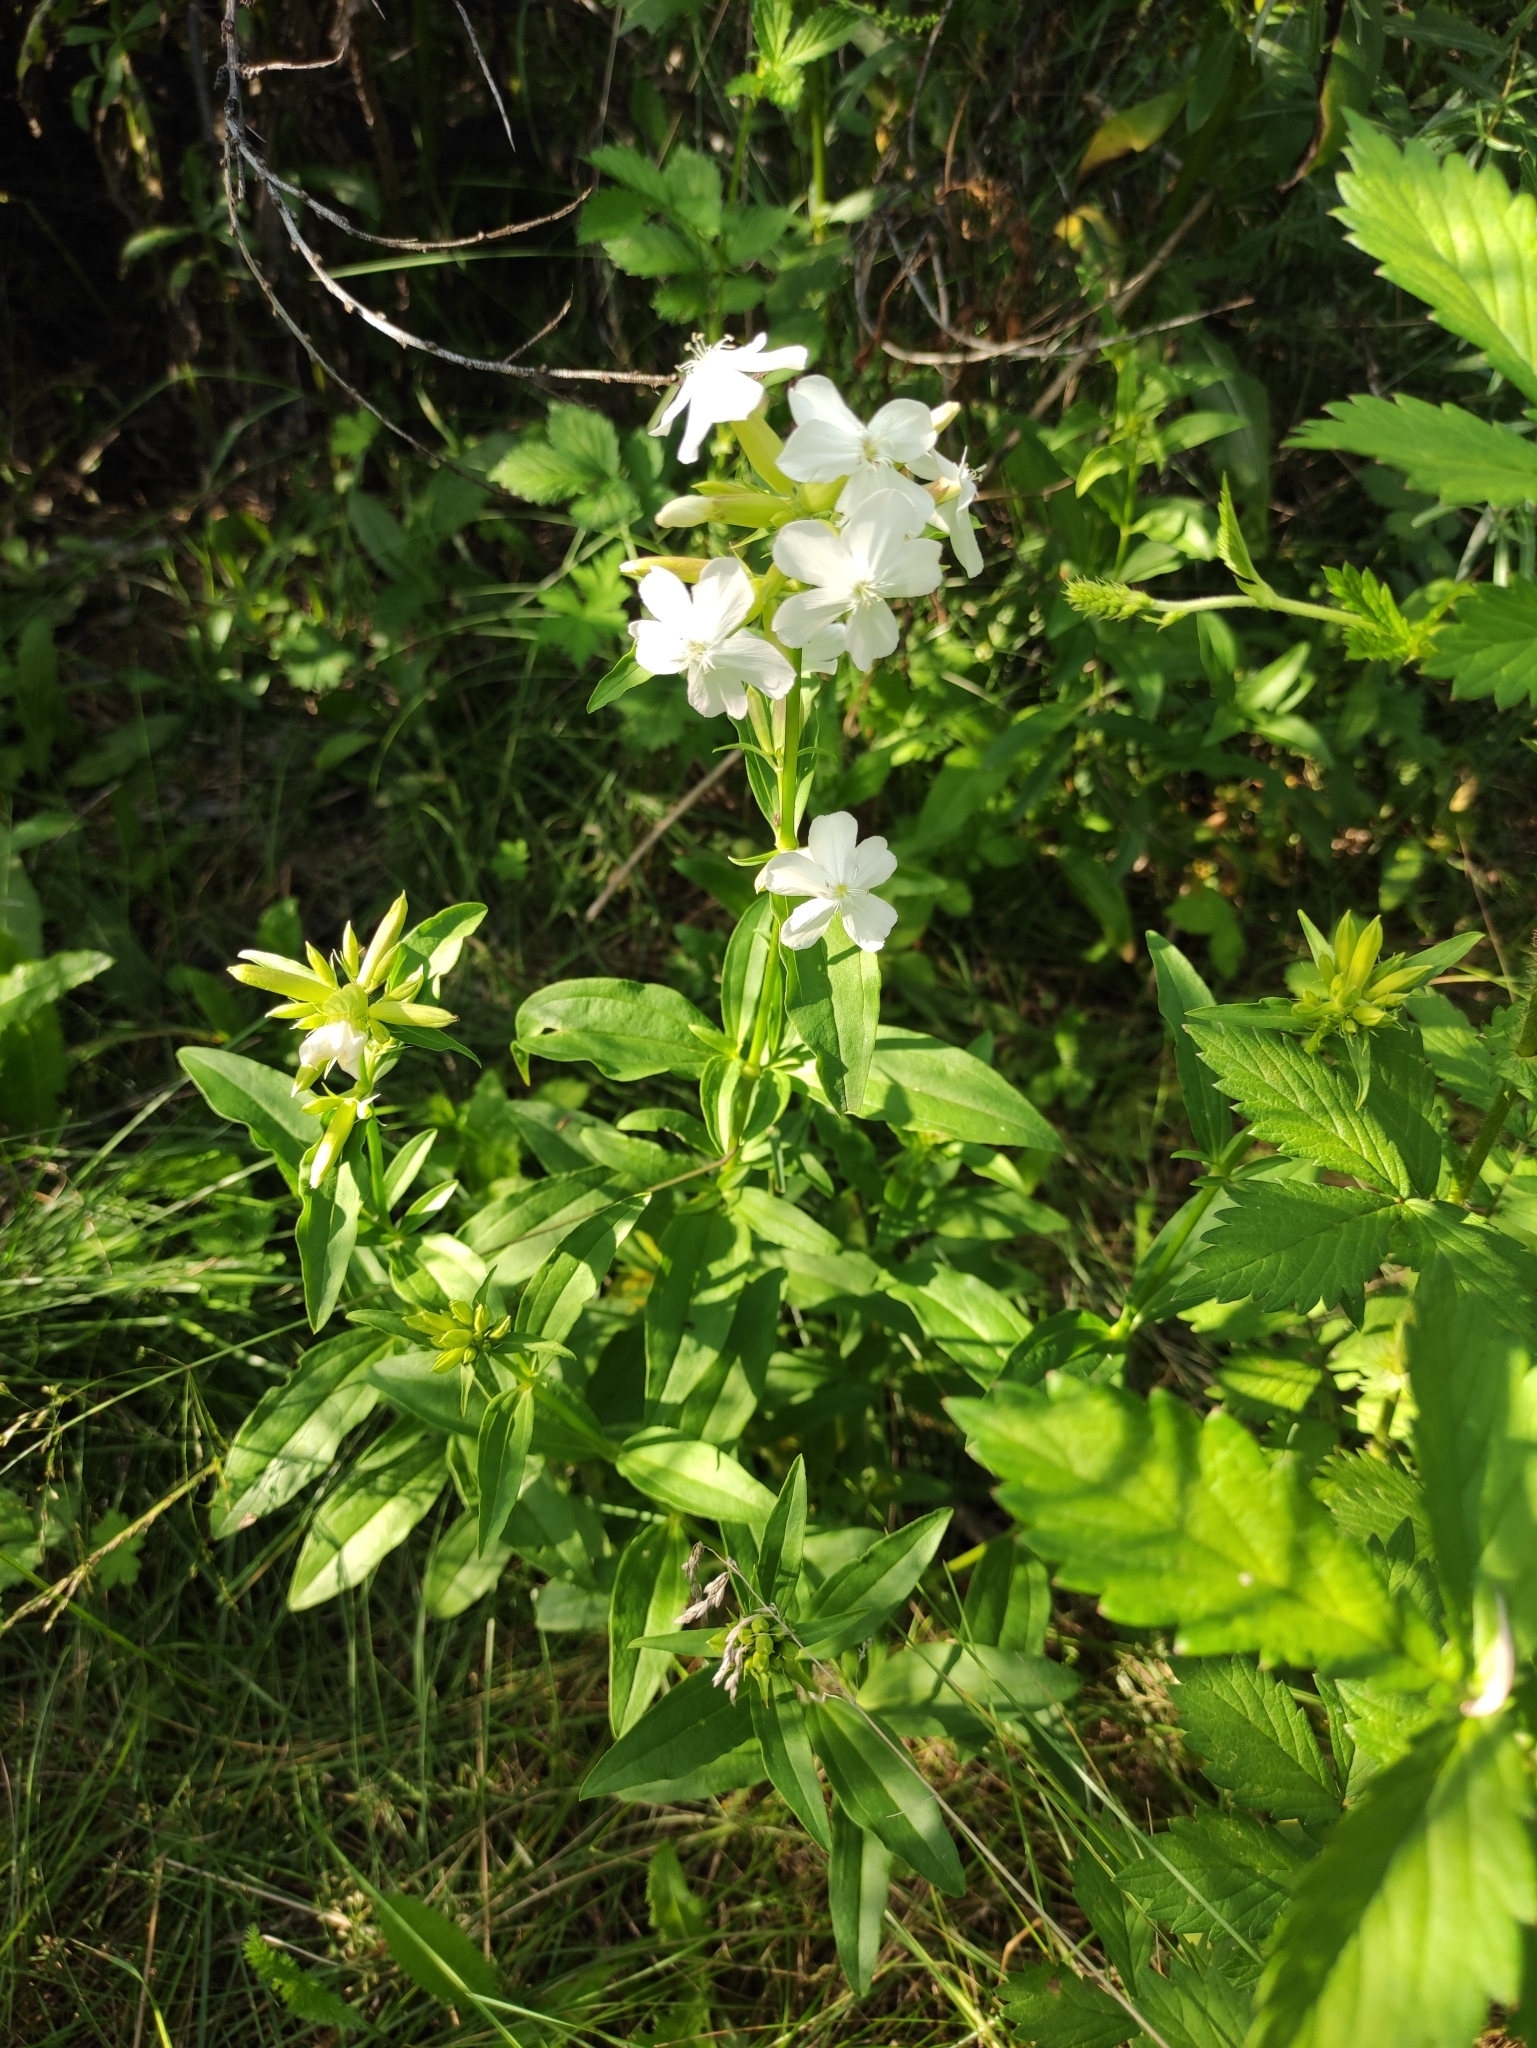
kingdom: Plantae
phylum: Tracheophyta
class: Magnoliopsida
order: Caryophyllales
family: Caryophyllaceae
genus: Saponaria
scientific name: Saponaria officinalis
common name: Soapwort
